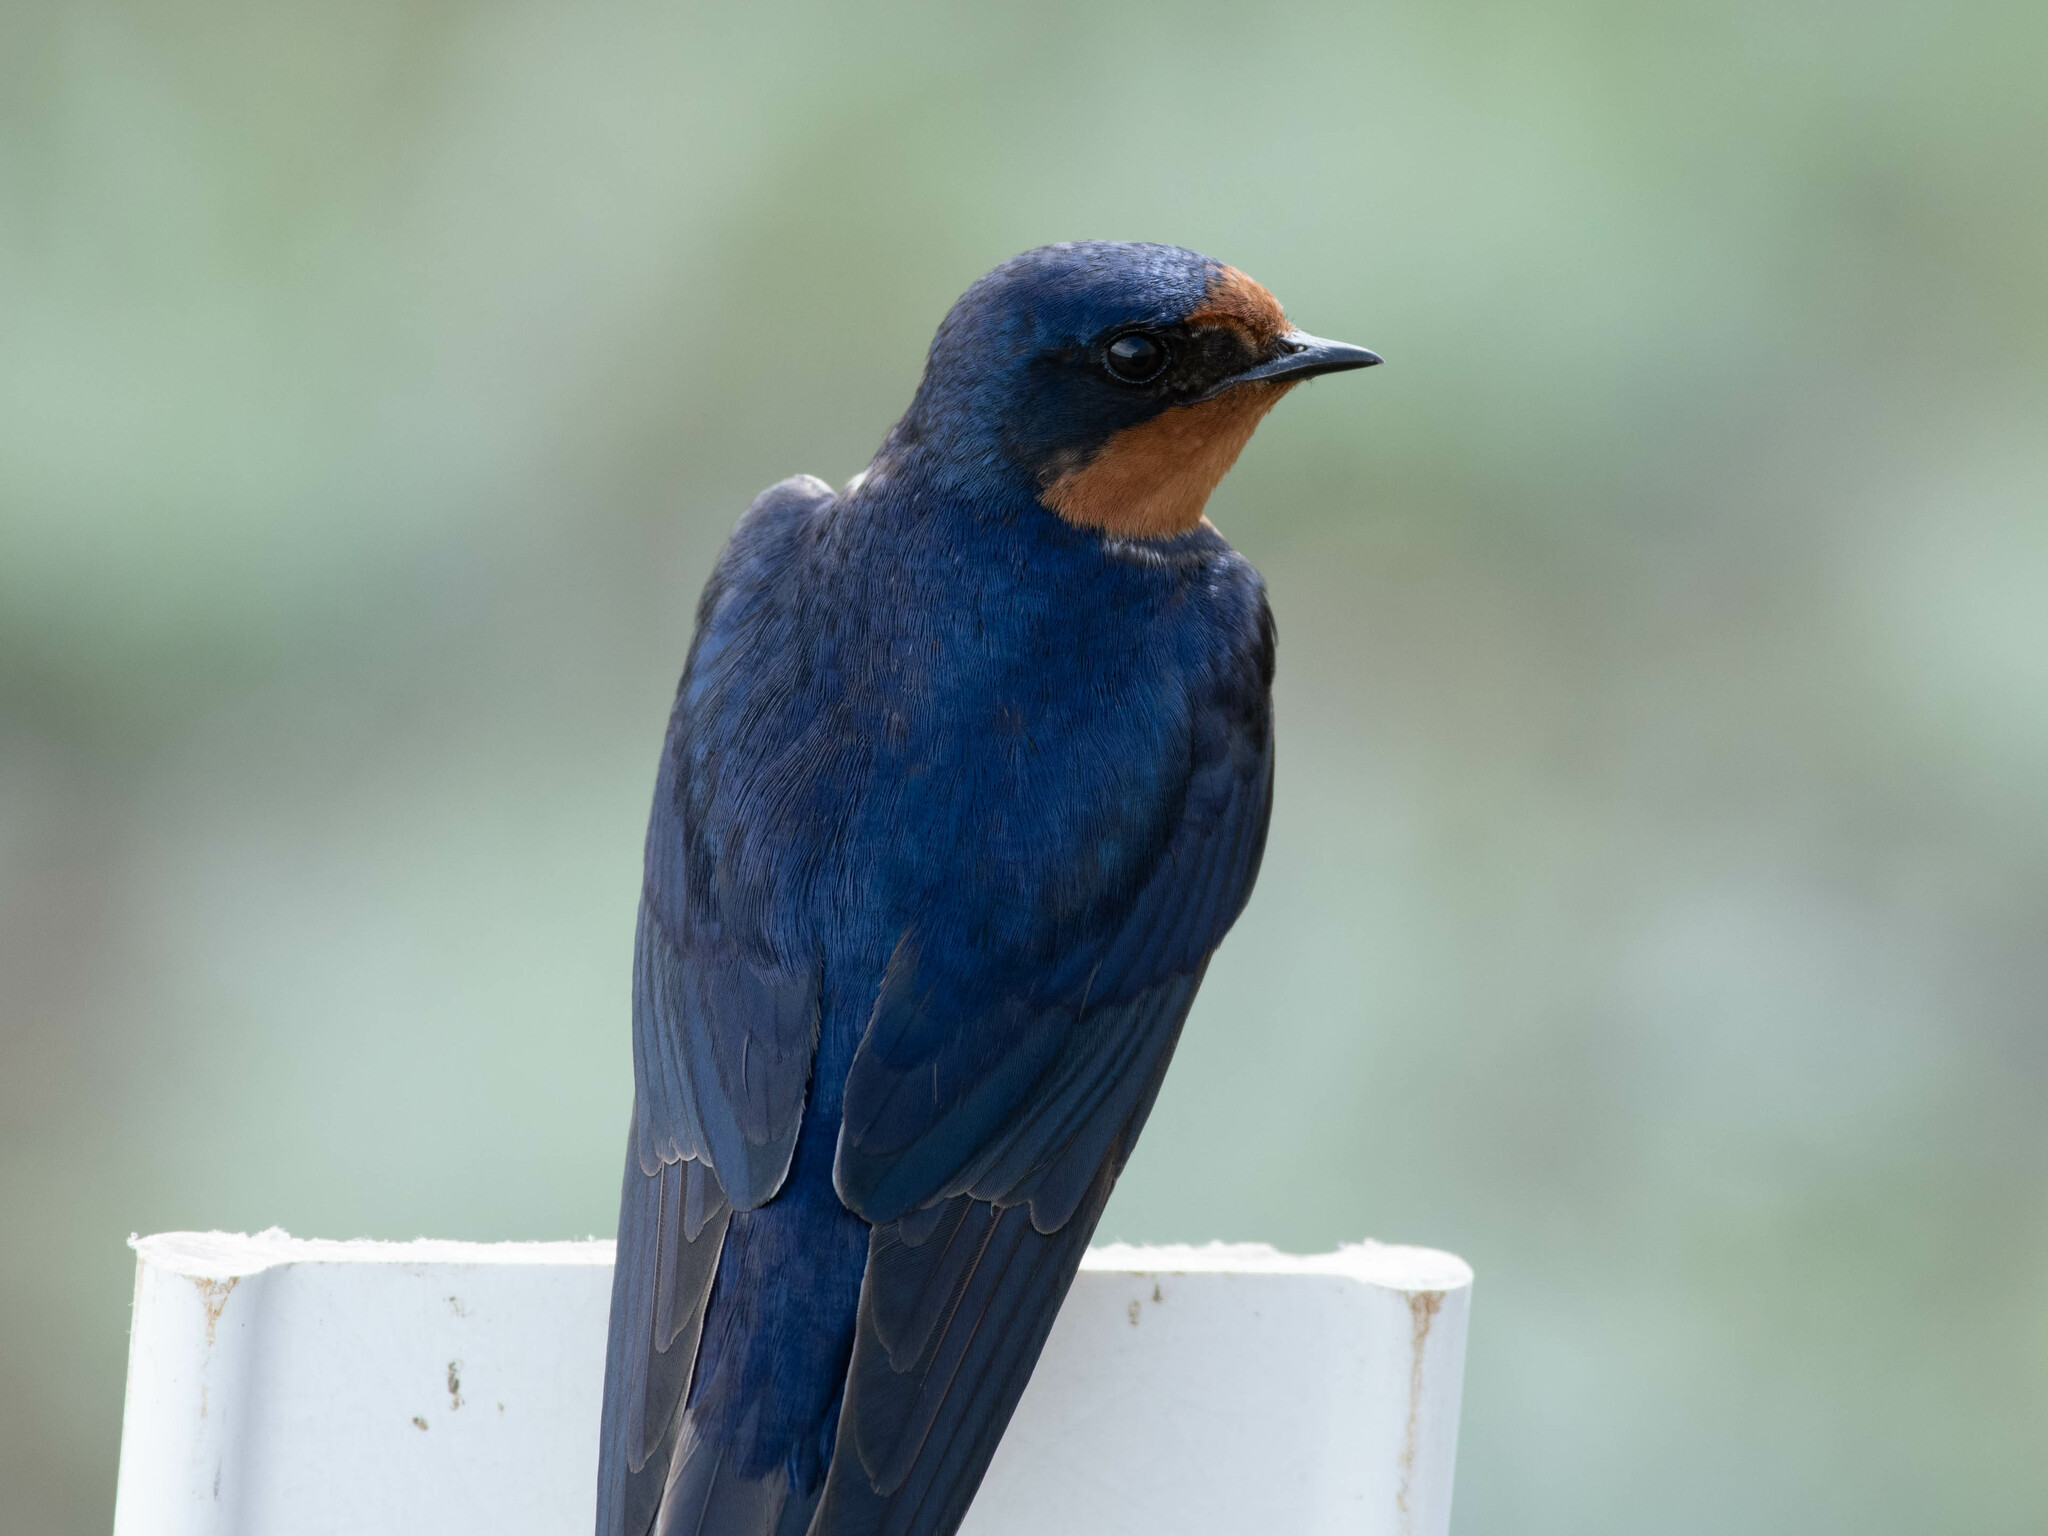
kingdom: Animalia
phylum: Chordata
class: Aves
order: Passeriformes
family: Hirundinidae
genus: Hirundo
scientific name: Hirundo rustica
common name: Barn swallow
